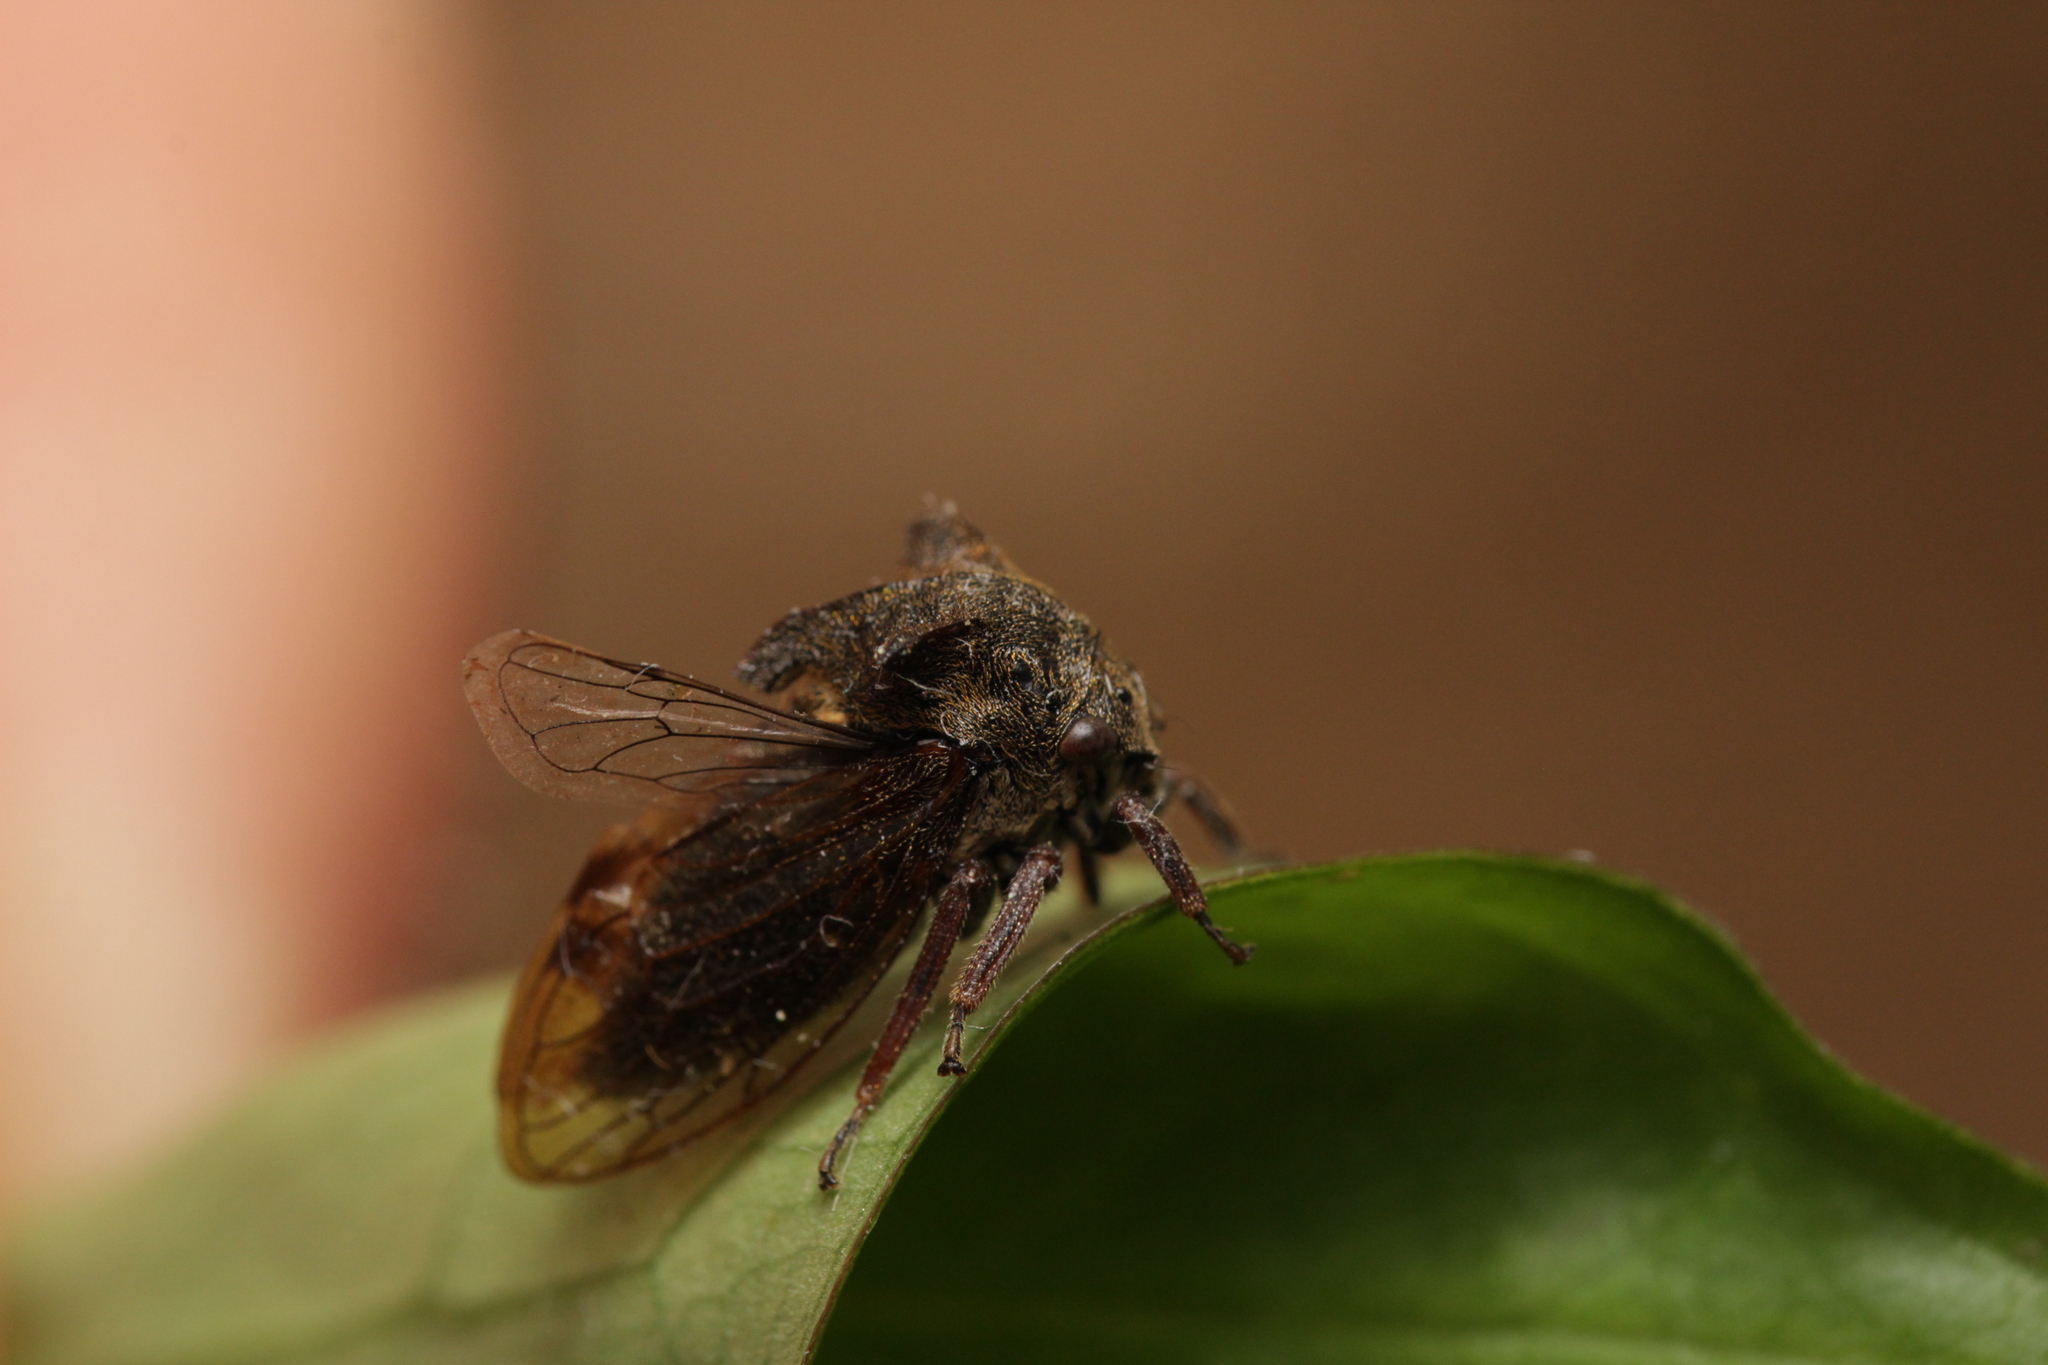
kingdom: Animalia
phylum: Arthropoda
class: Insecta
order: Hemiptera
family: Membracidae
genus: Centrotus
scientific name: Centrotus cornuta
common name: Treehopper
